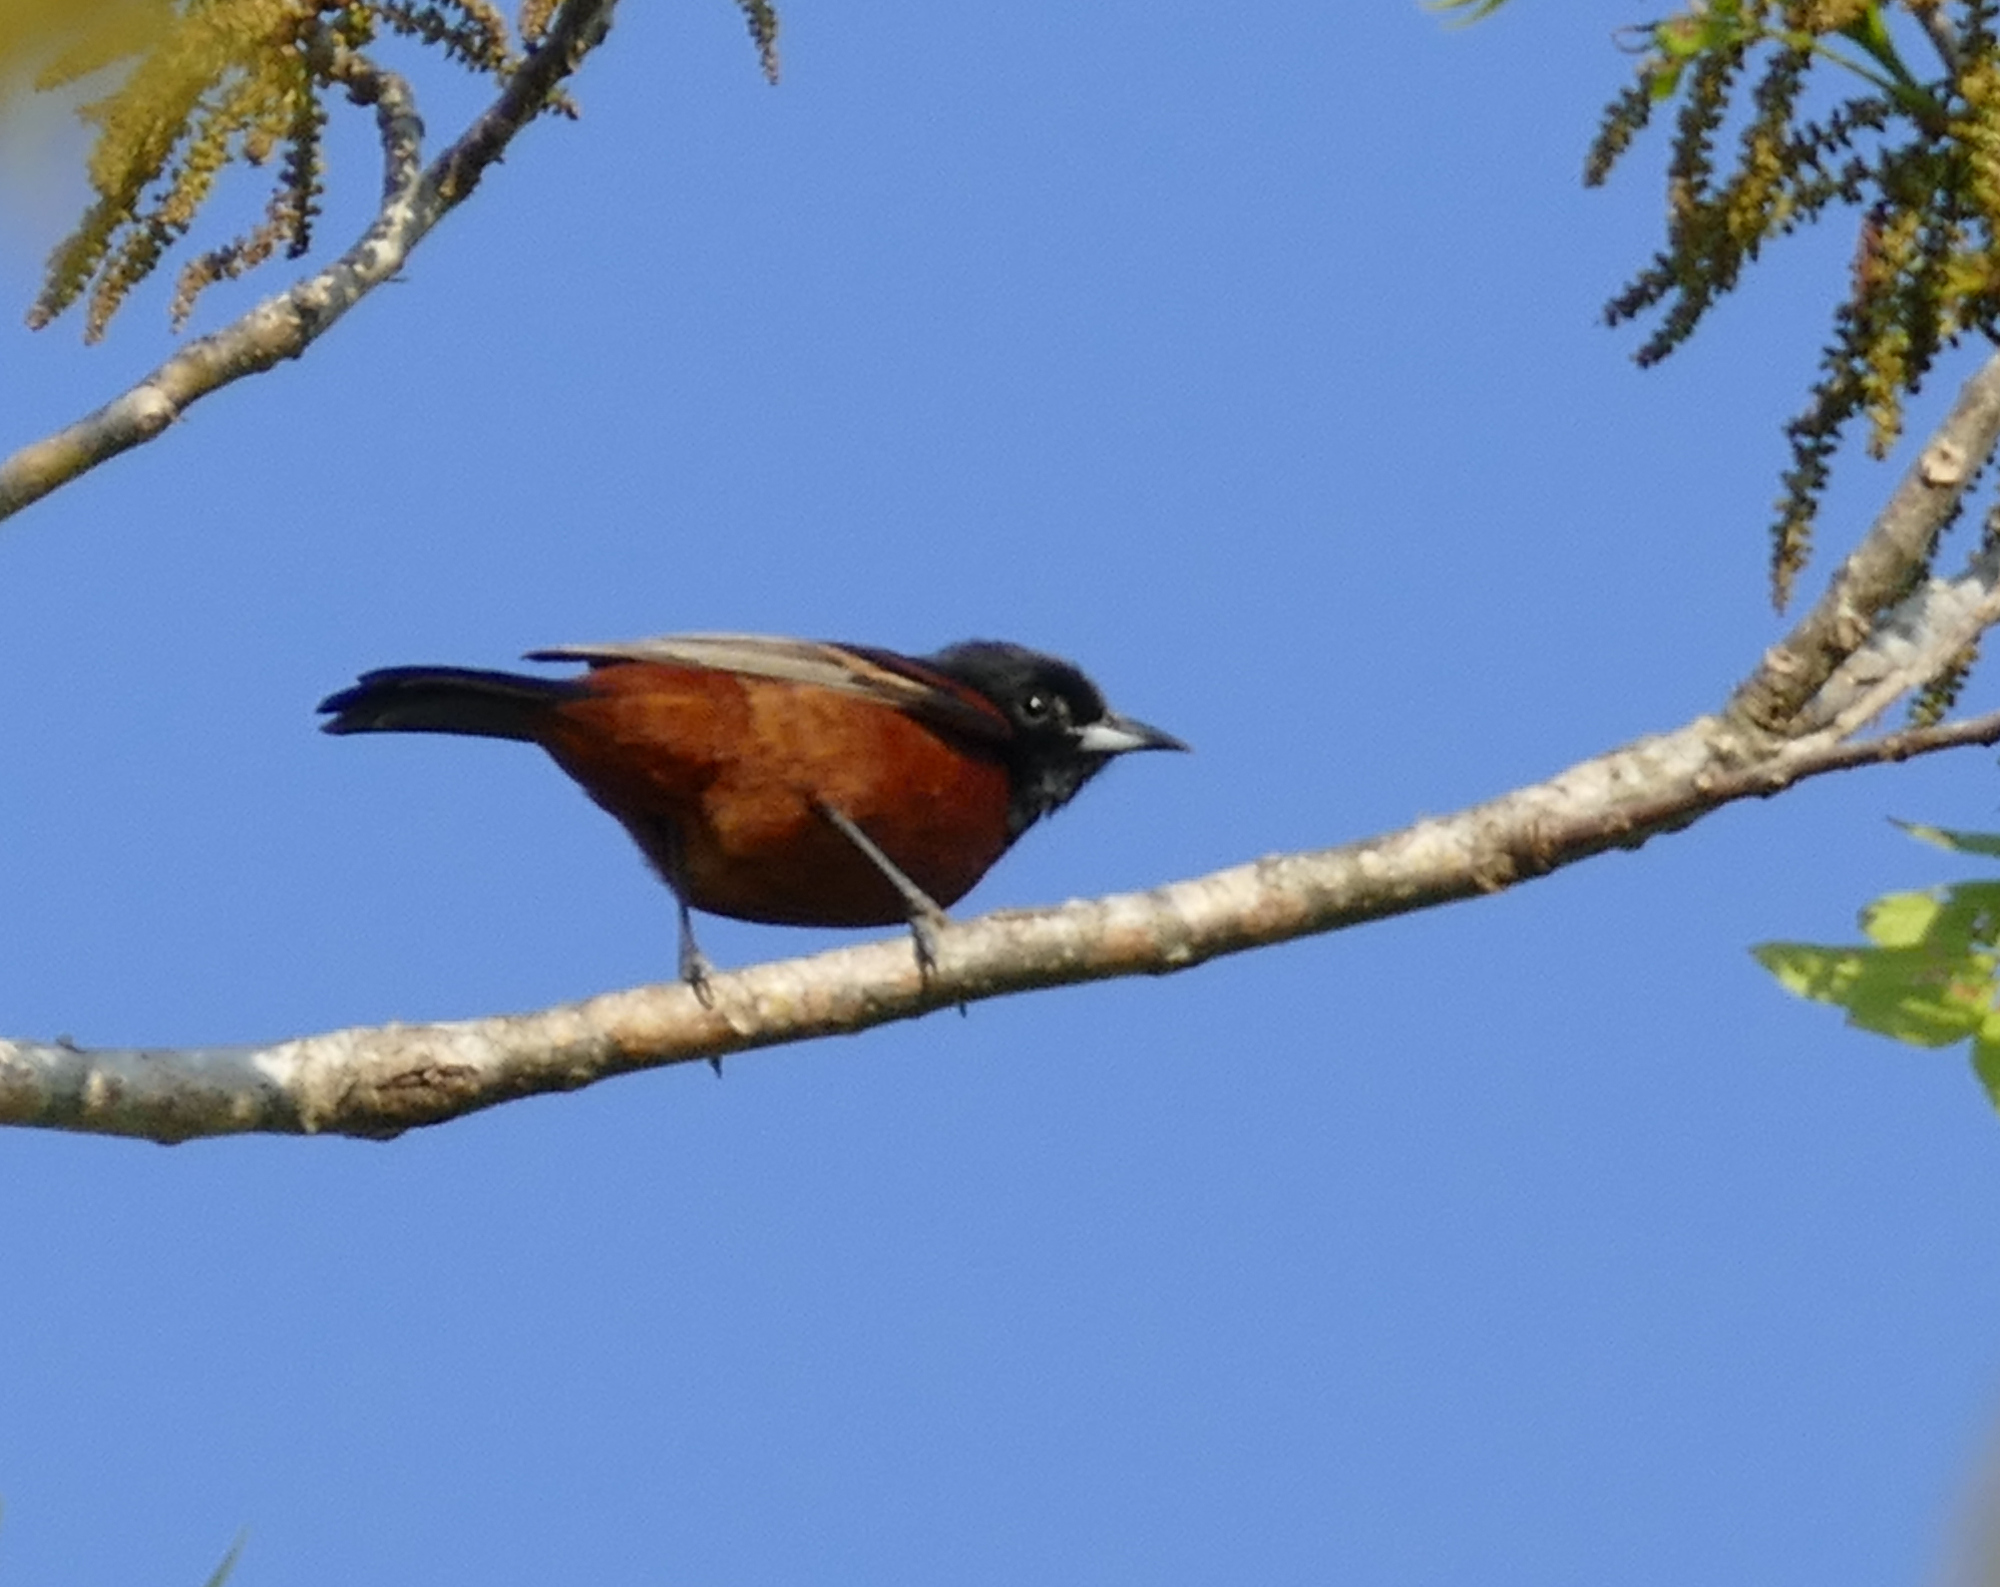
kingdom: Animalia
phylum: Chordata
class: Aves
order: Passeriformes
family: Icteridae
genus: Icterus
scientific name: Icterus spurius
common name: Orchard oriole
